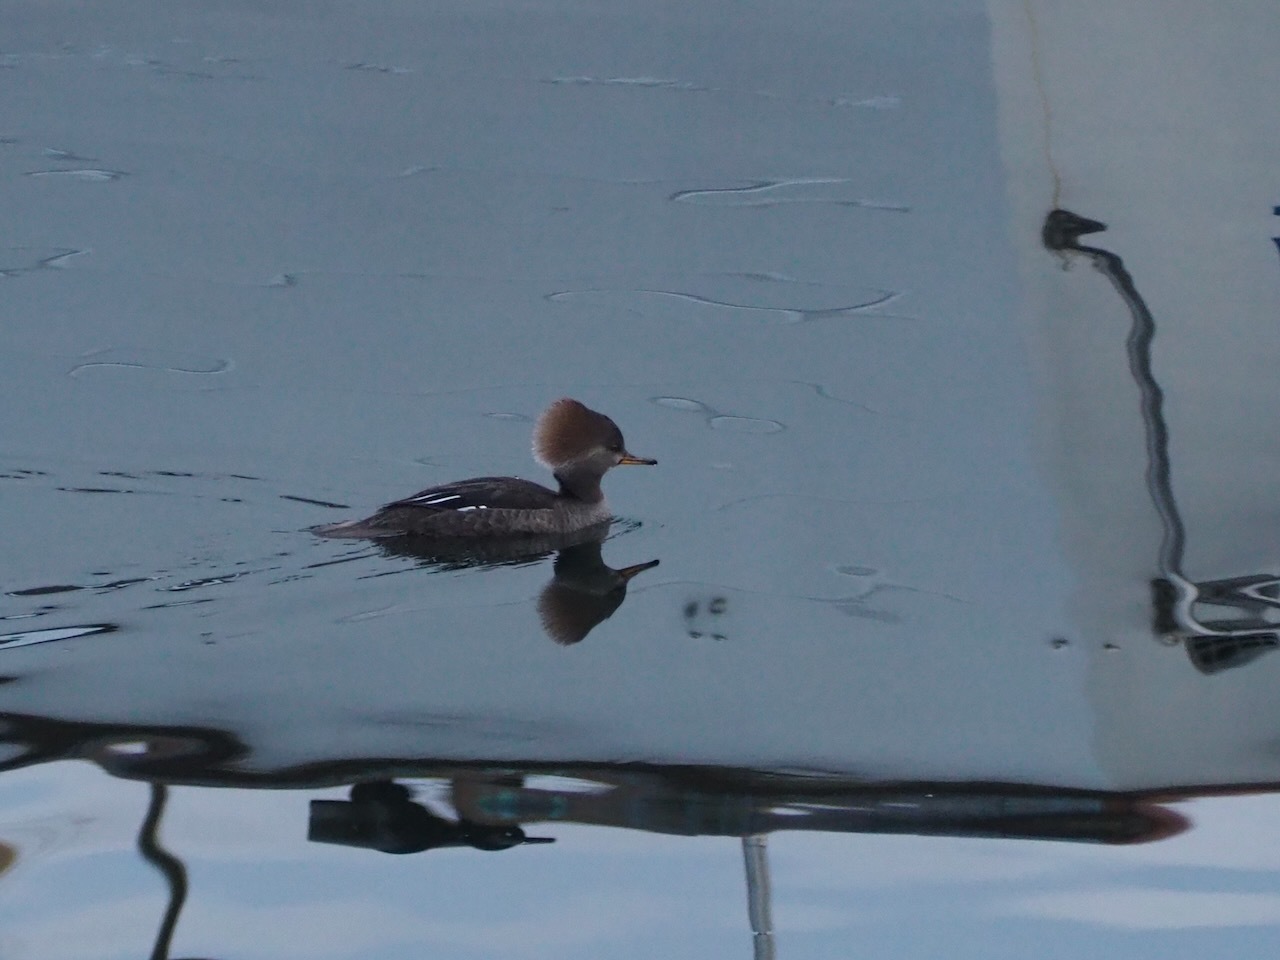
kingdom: Animalia
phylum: Chordata
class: Aves
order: Anseriformes
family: Anatidae
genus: Lophodytes
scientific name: Lophodytes cucullatus
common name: Hooded merganser
